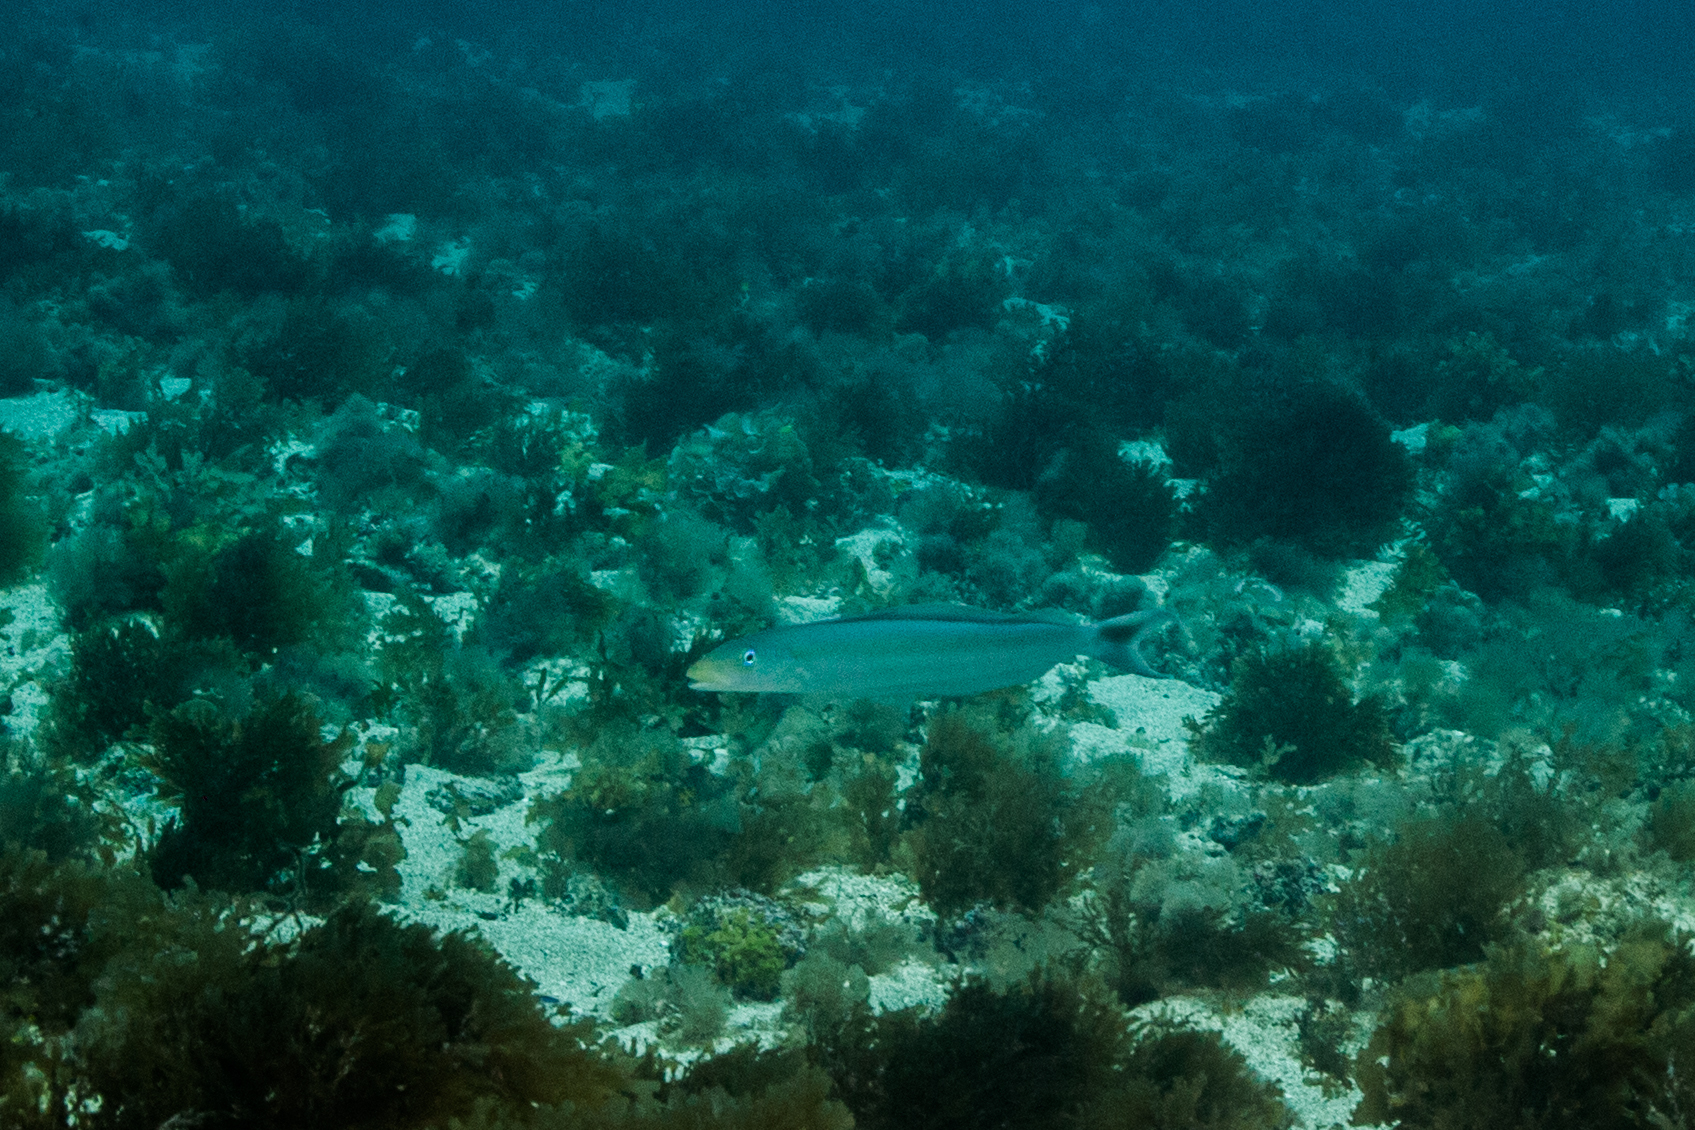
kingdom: Animalia
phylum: Chordata
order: Perciformes
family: Malacanthidae
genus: Malacanthus
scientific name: Malacanthus plumieri
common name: Sand tilefish
